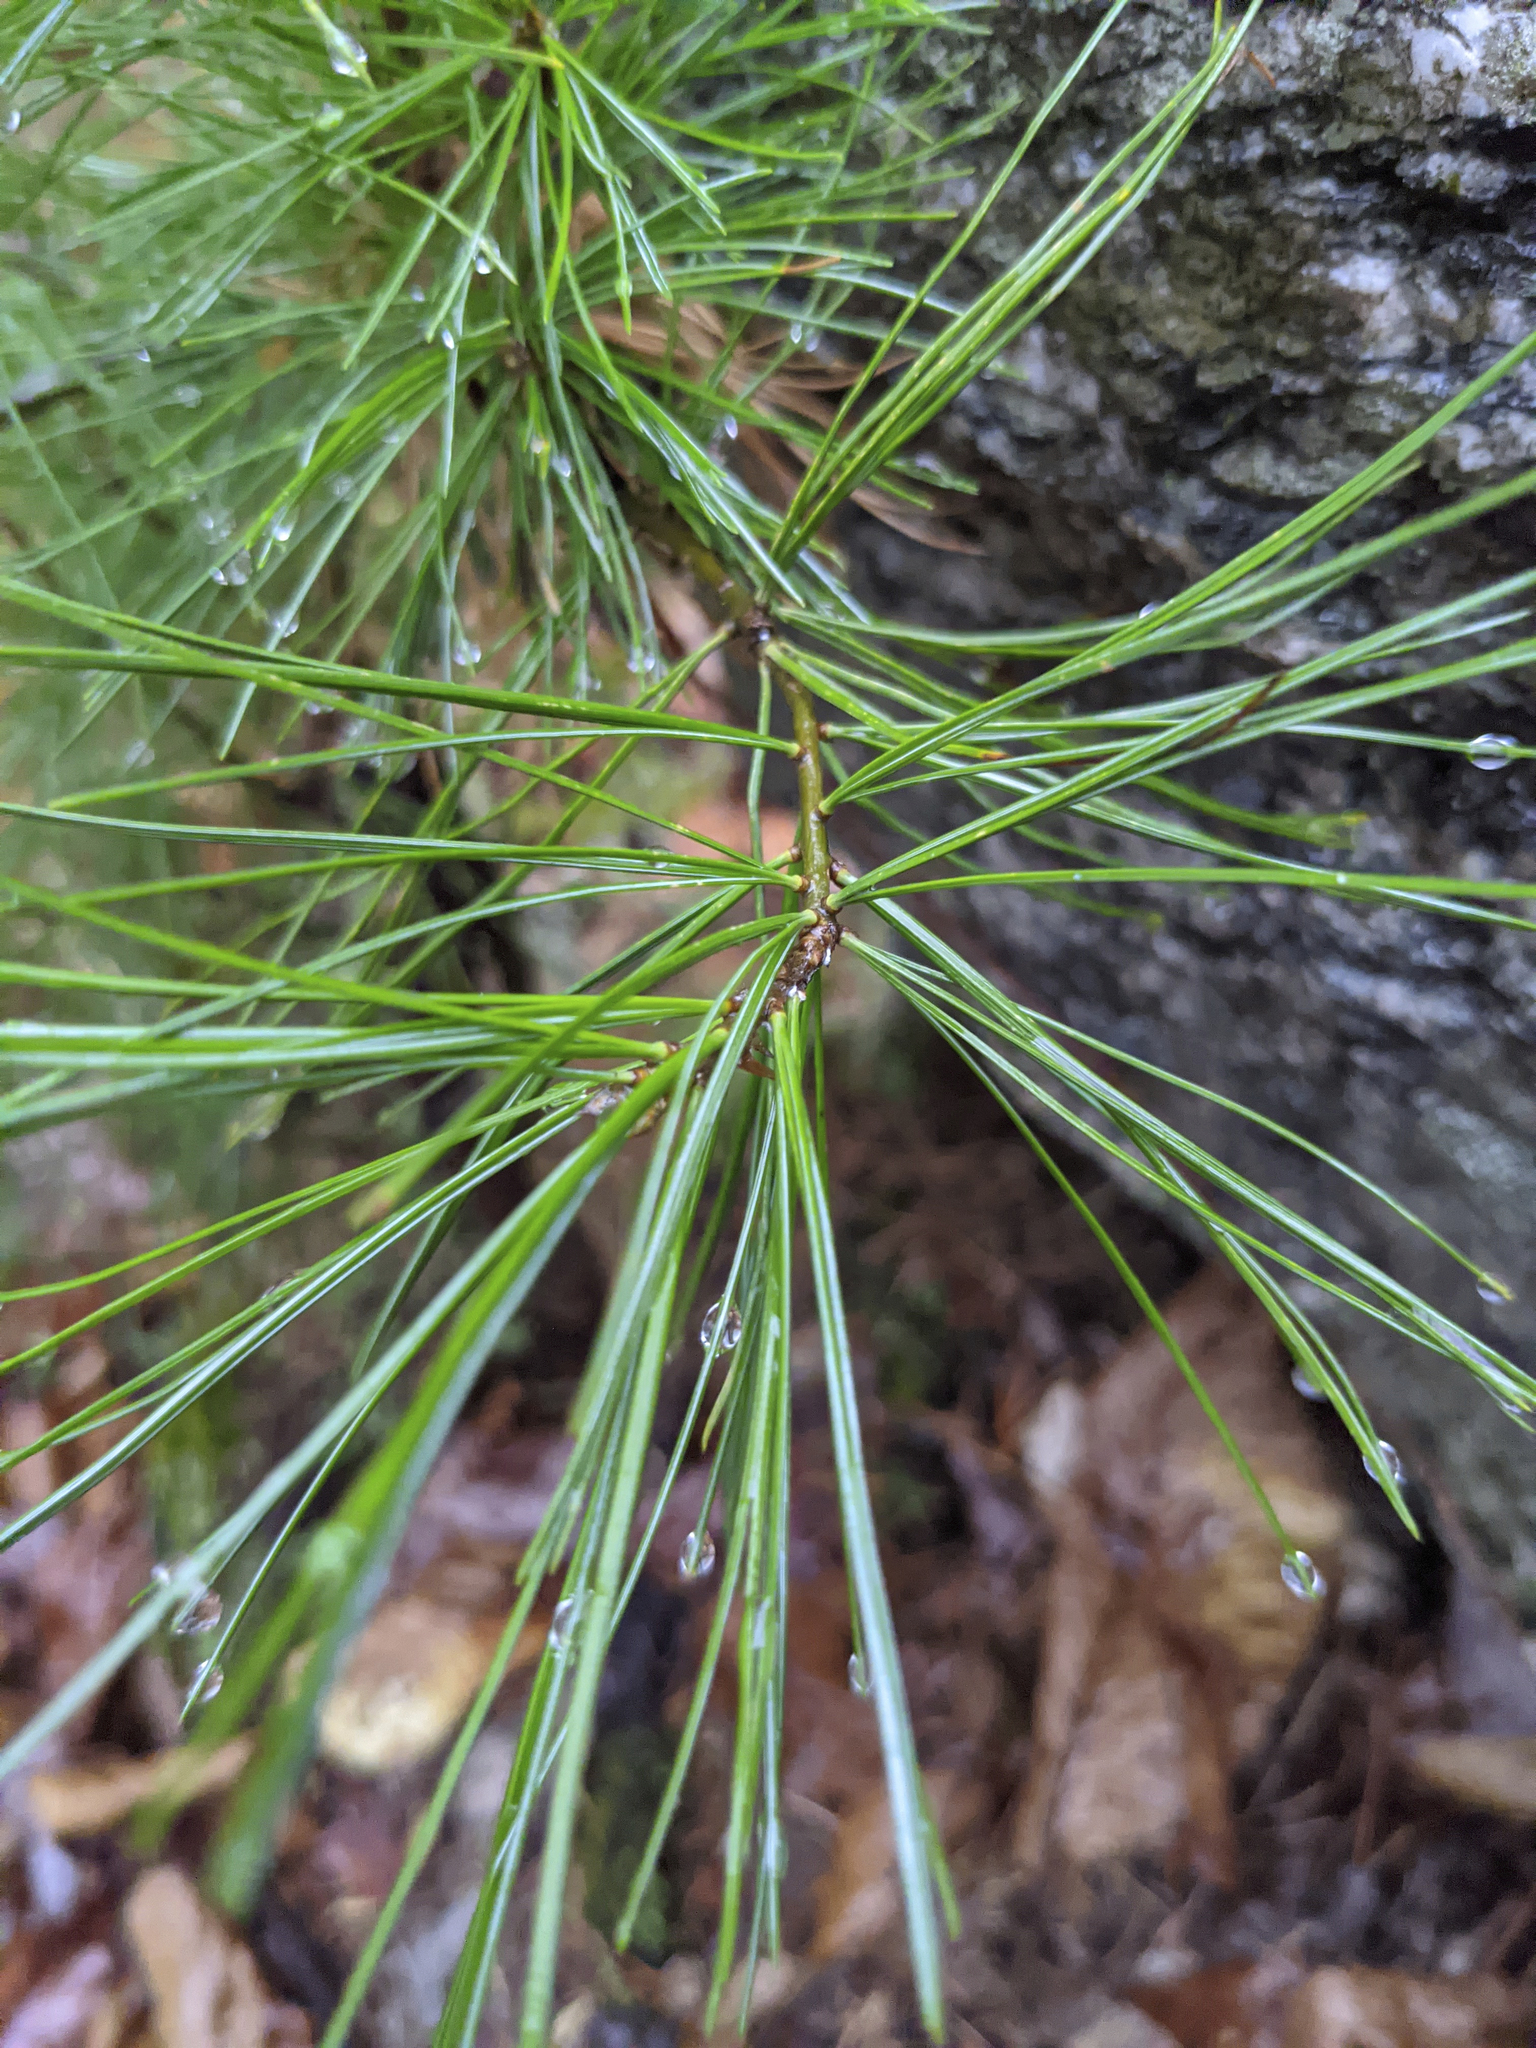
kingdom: Plantae
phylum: Tracheophyta
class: Pinopsida
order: Pinales
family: Pinaceae
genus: Pinus
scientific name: Pinus strobus
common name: Weymouth pine
